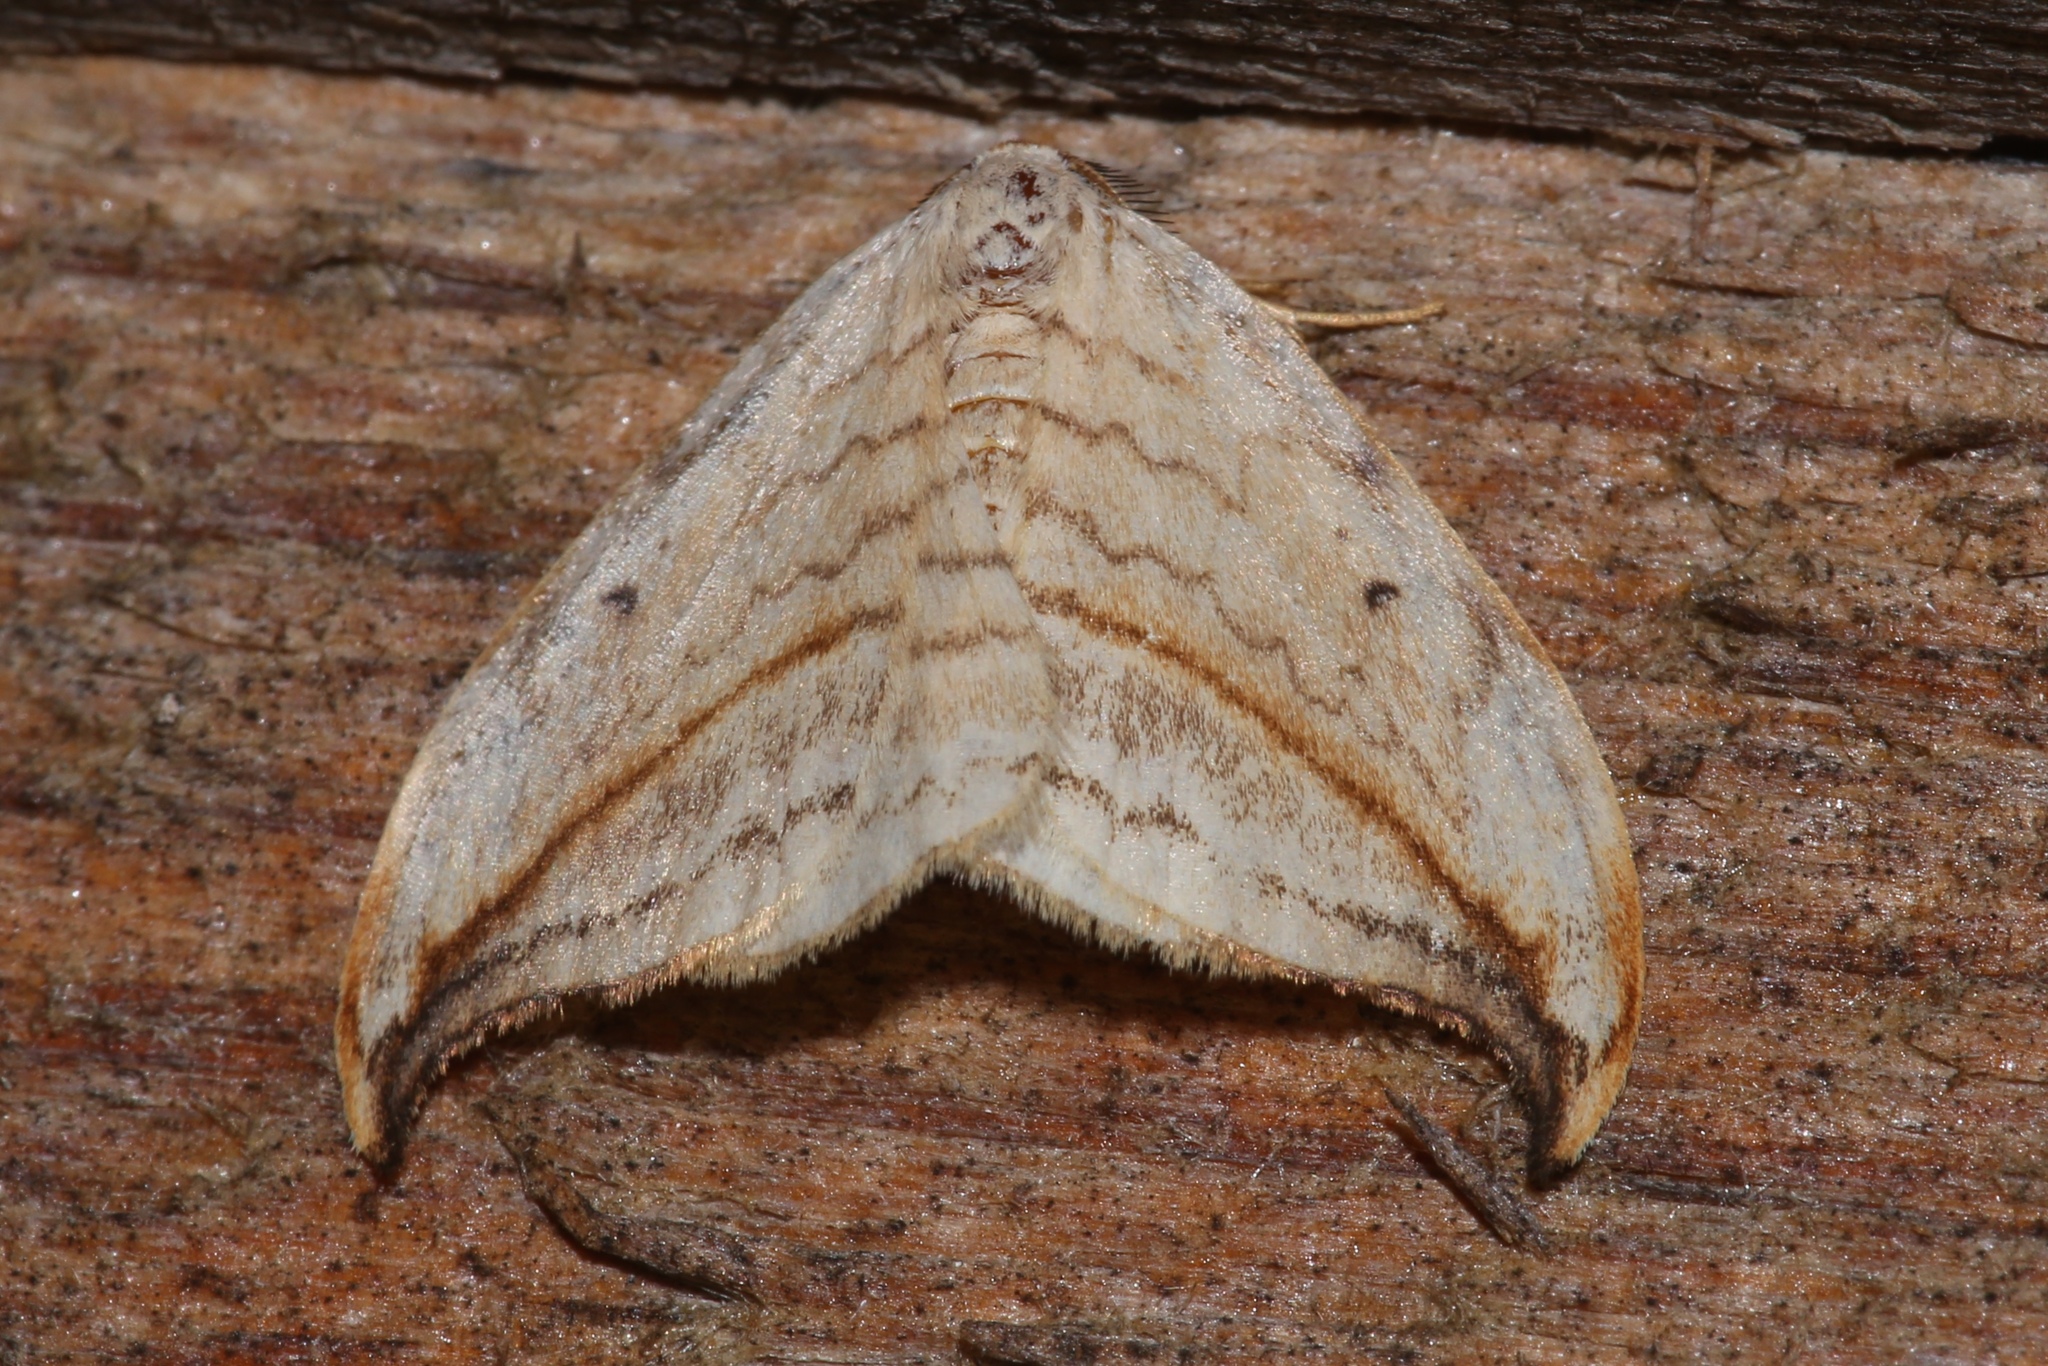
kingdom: Animalia
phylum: Arthropoda
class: Insecta
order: Lepidoptera
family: Drepanidae
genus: Drepana
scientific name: Drepana arcuata
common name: Arched hooktip moth
